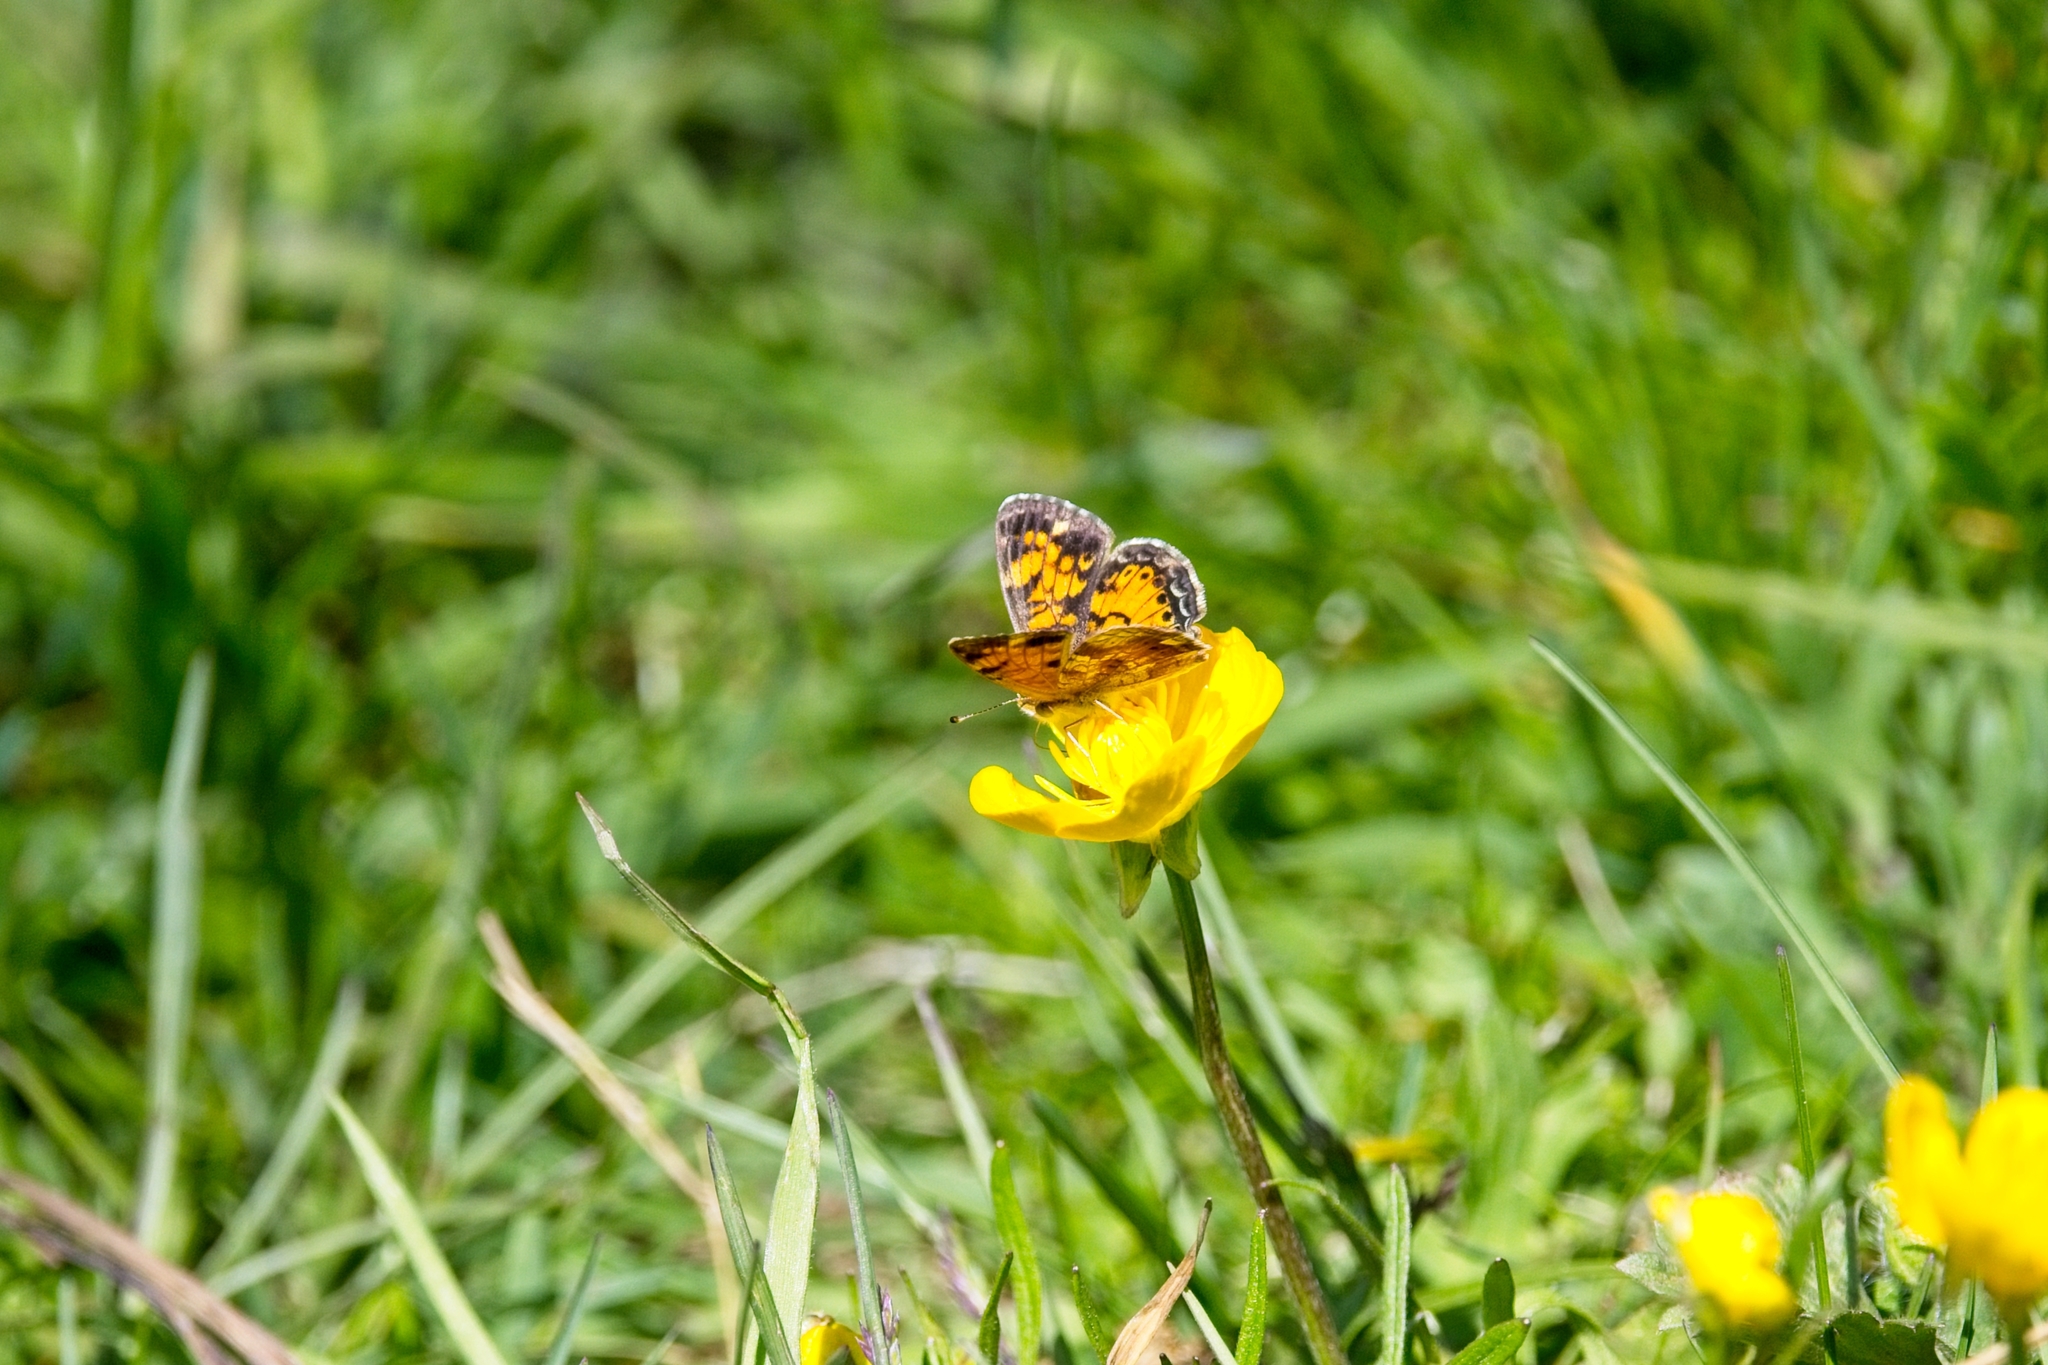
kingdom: Animalia
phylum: Arthropoda
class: Insecta
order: Lepidoptera
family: Nymphalidae
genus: Phyciodes
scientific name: Phyciodes tharos
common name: Pearl crescent
